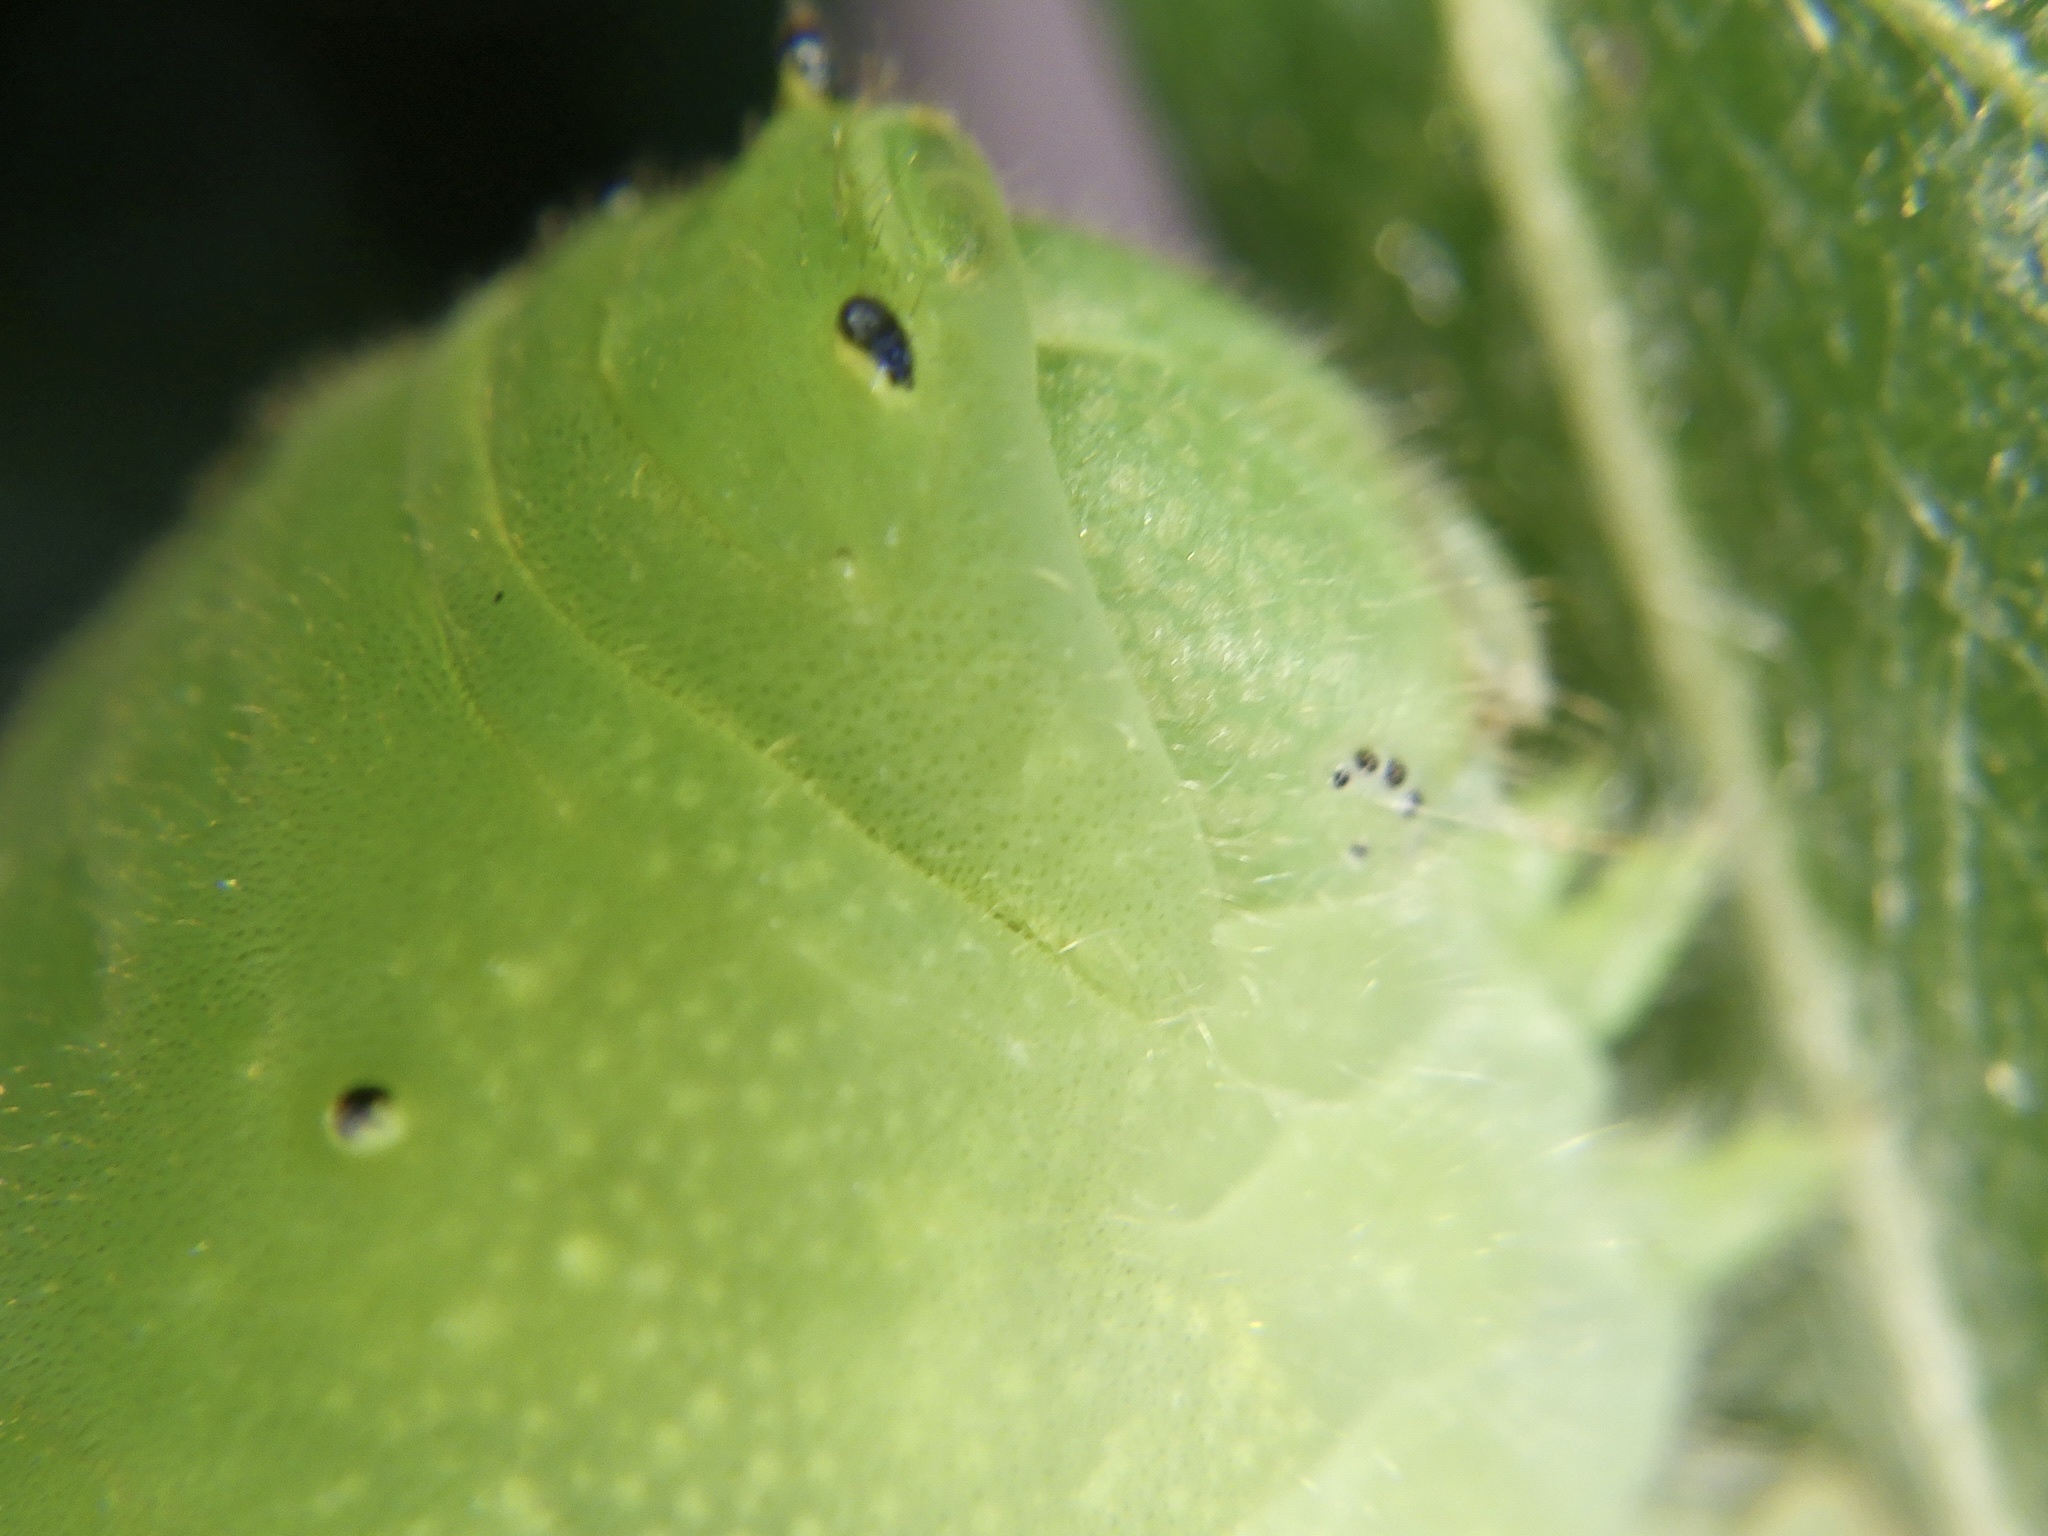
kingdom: Fungi
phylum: Ascomycota
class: Sordariomycetes
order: Microascales
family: Microascaceae
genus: Graphium
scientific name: Graphium sarpedon
